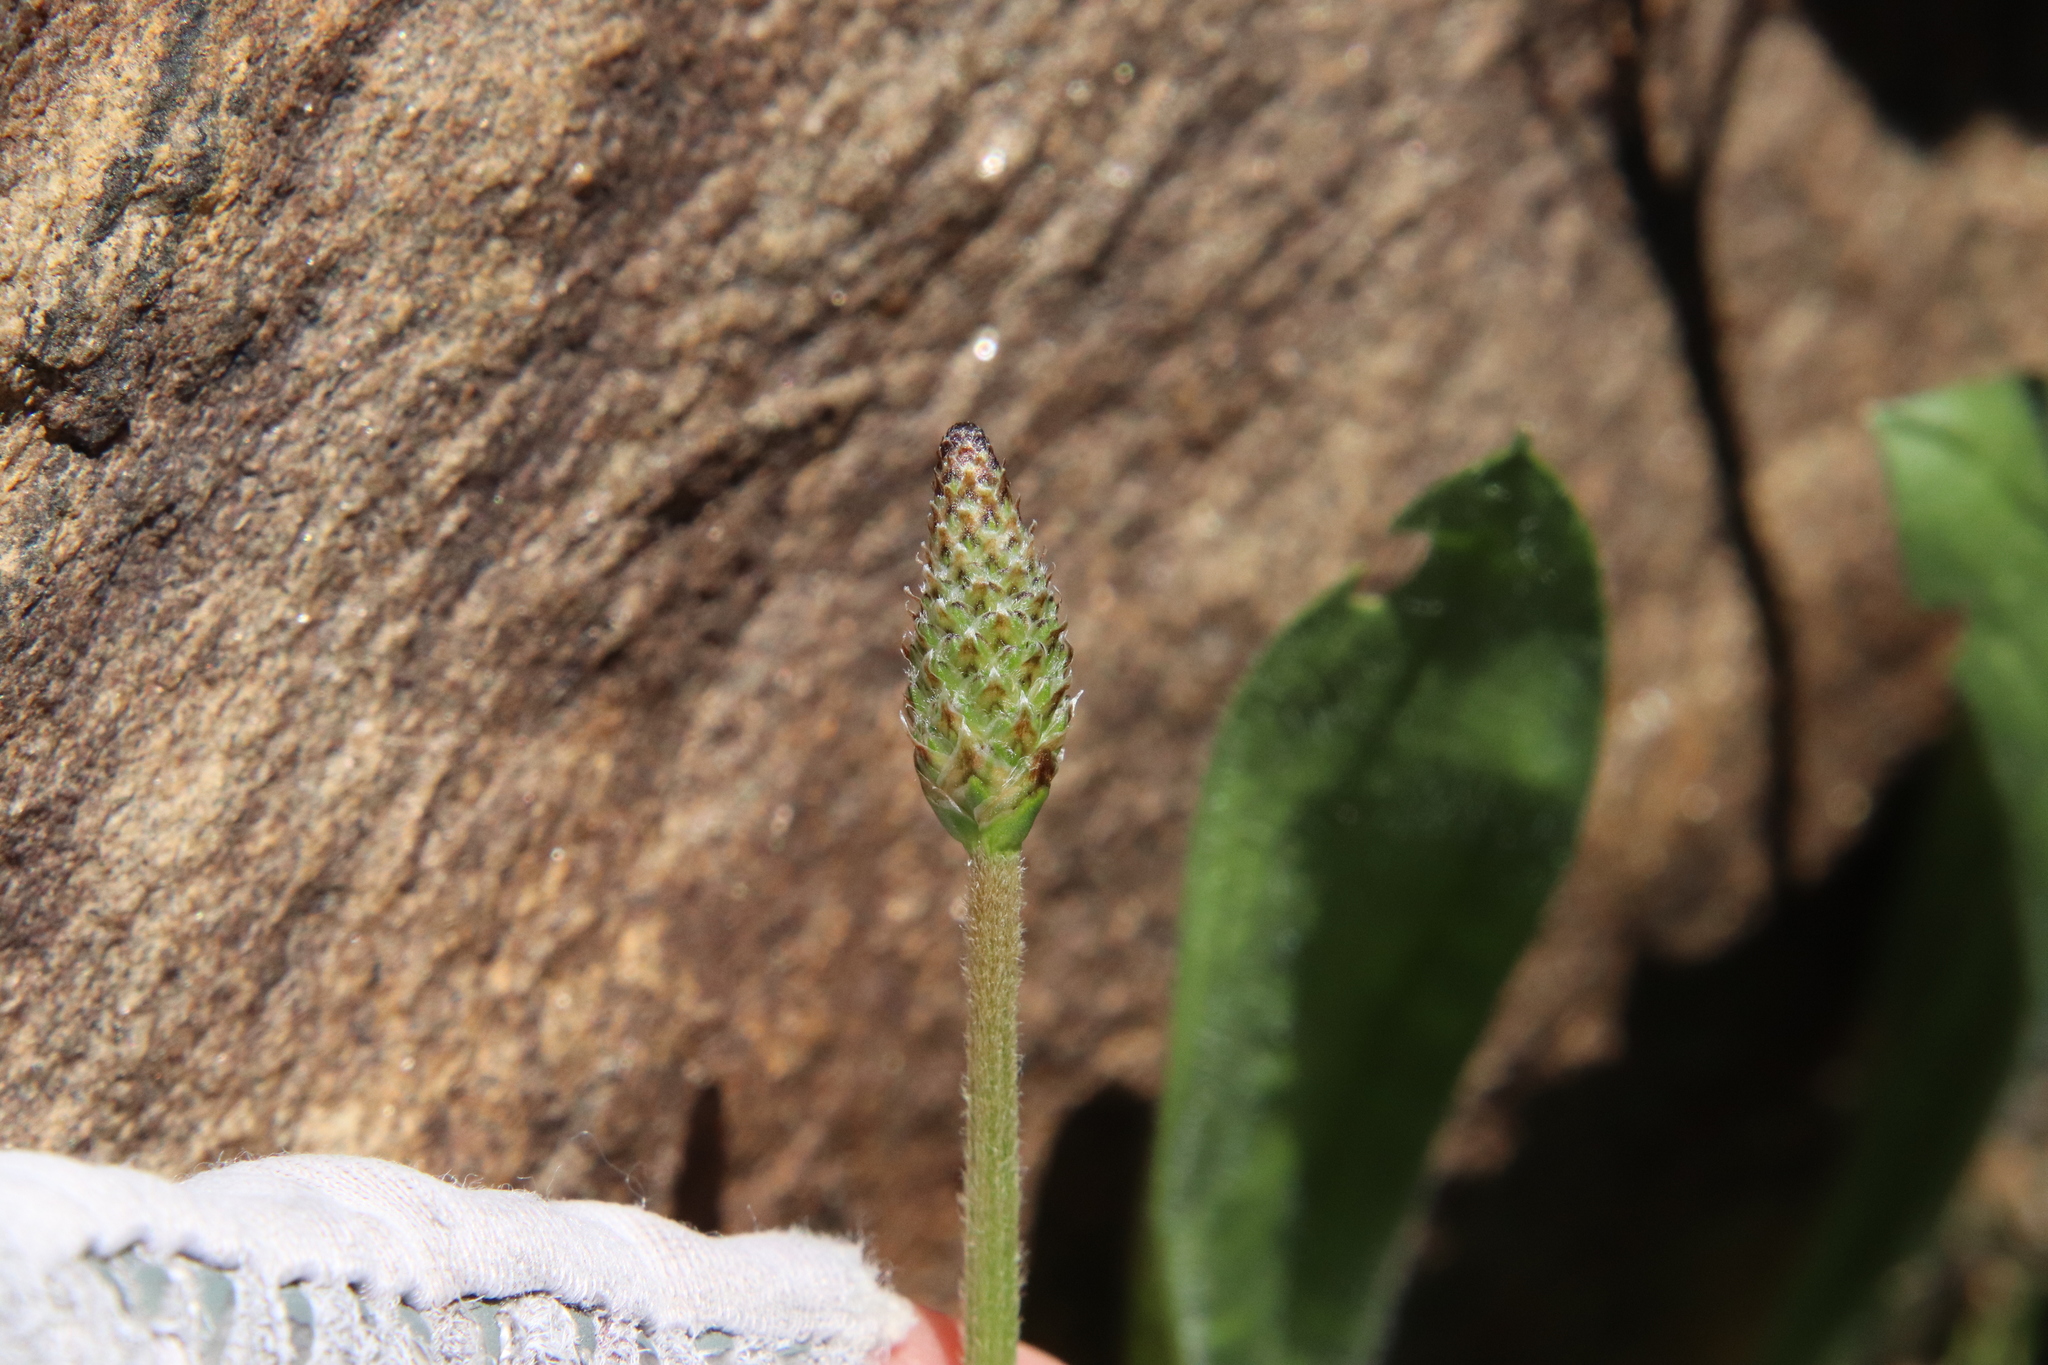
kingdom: Plantae
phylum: Tracheophyta
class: Magnoliopsida
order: Lamiales
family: Plantaginaceae
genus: Plantago
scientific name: Plantago lanceolata
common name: Ribwort plantain
